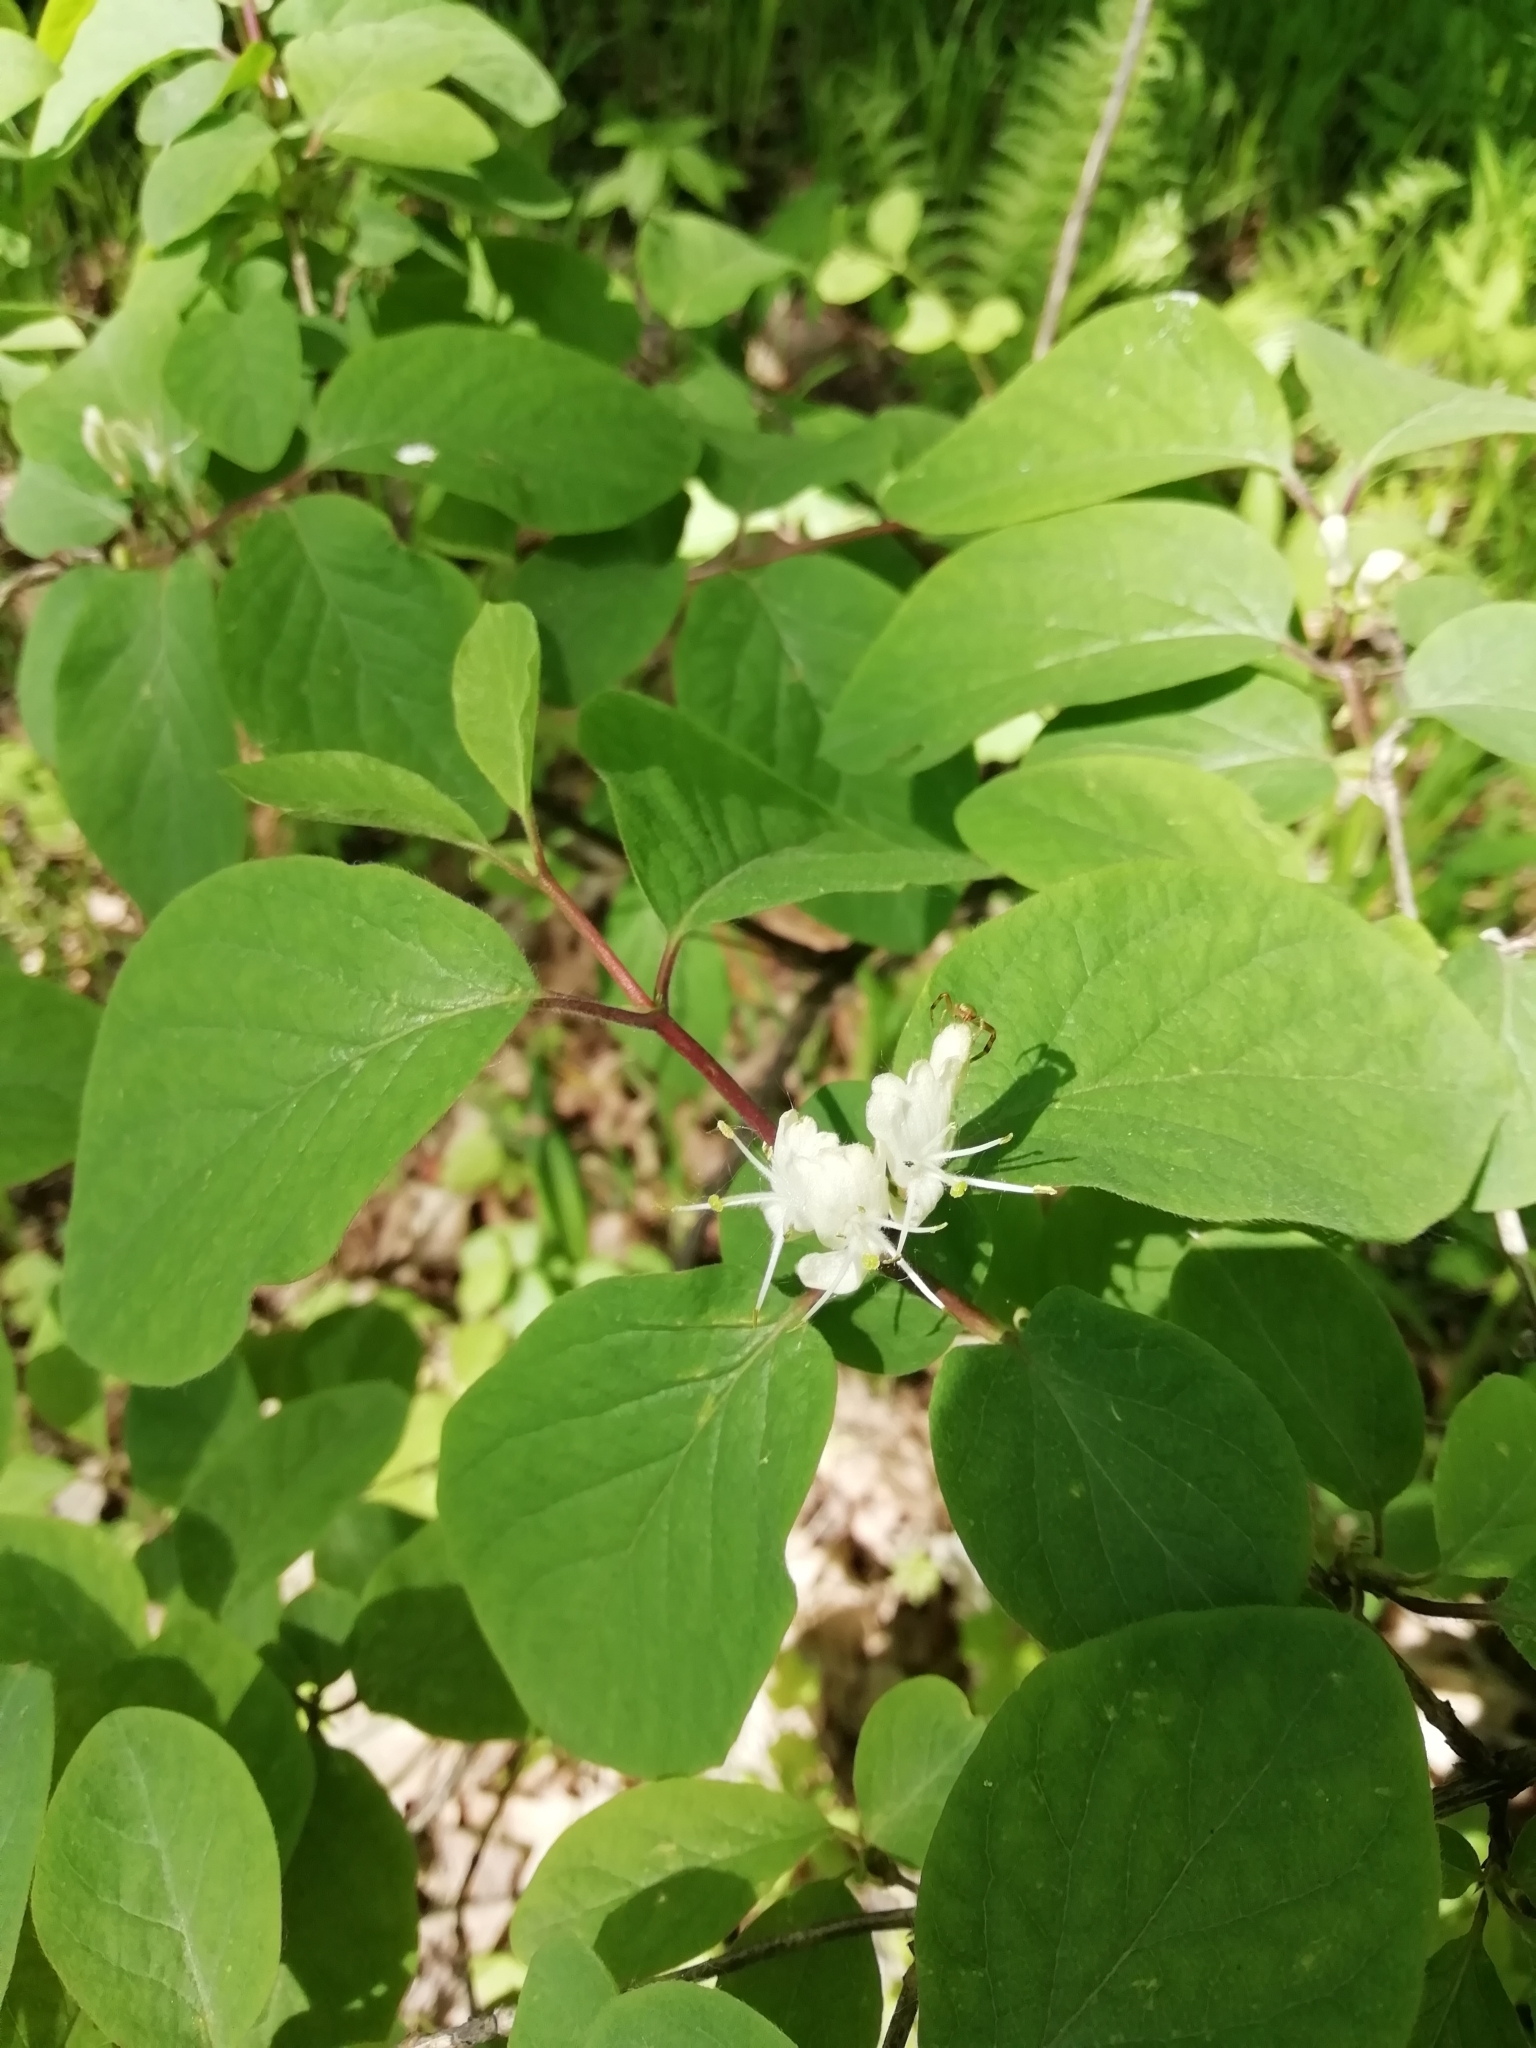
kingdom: Plantae
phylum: Tracheophyta
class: Magnoliopsida
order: Dipsacales
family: Caprifoliaceae
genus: Lonicera
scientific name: Lonicera xylosteum
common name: Fly honeysuckle
